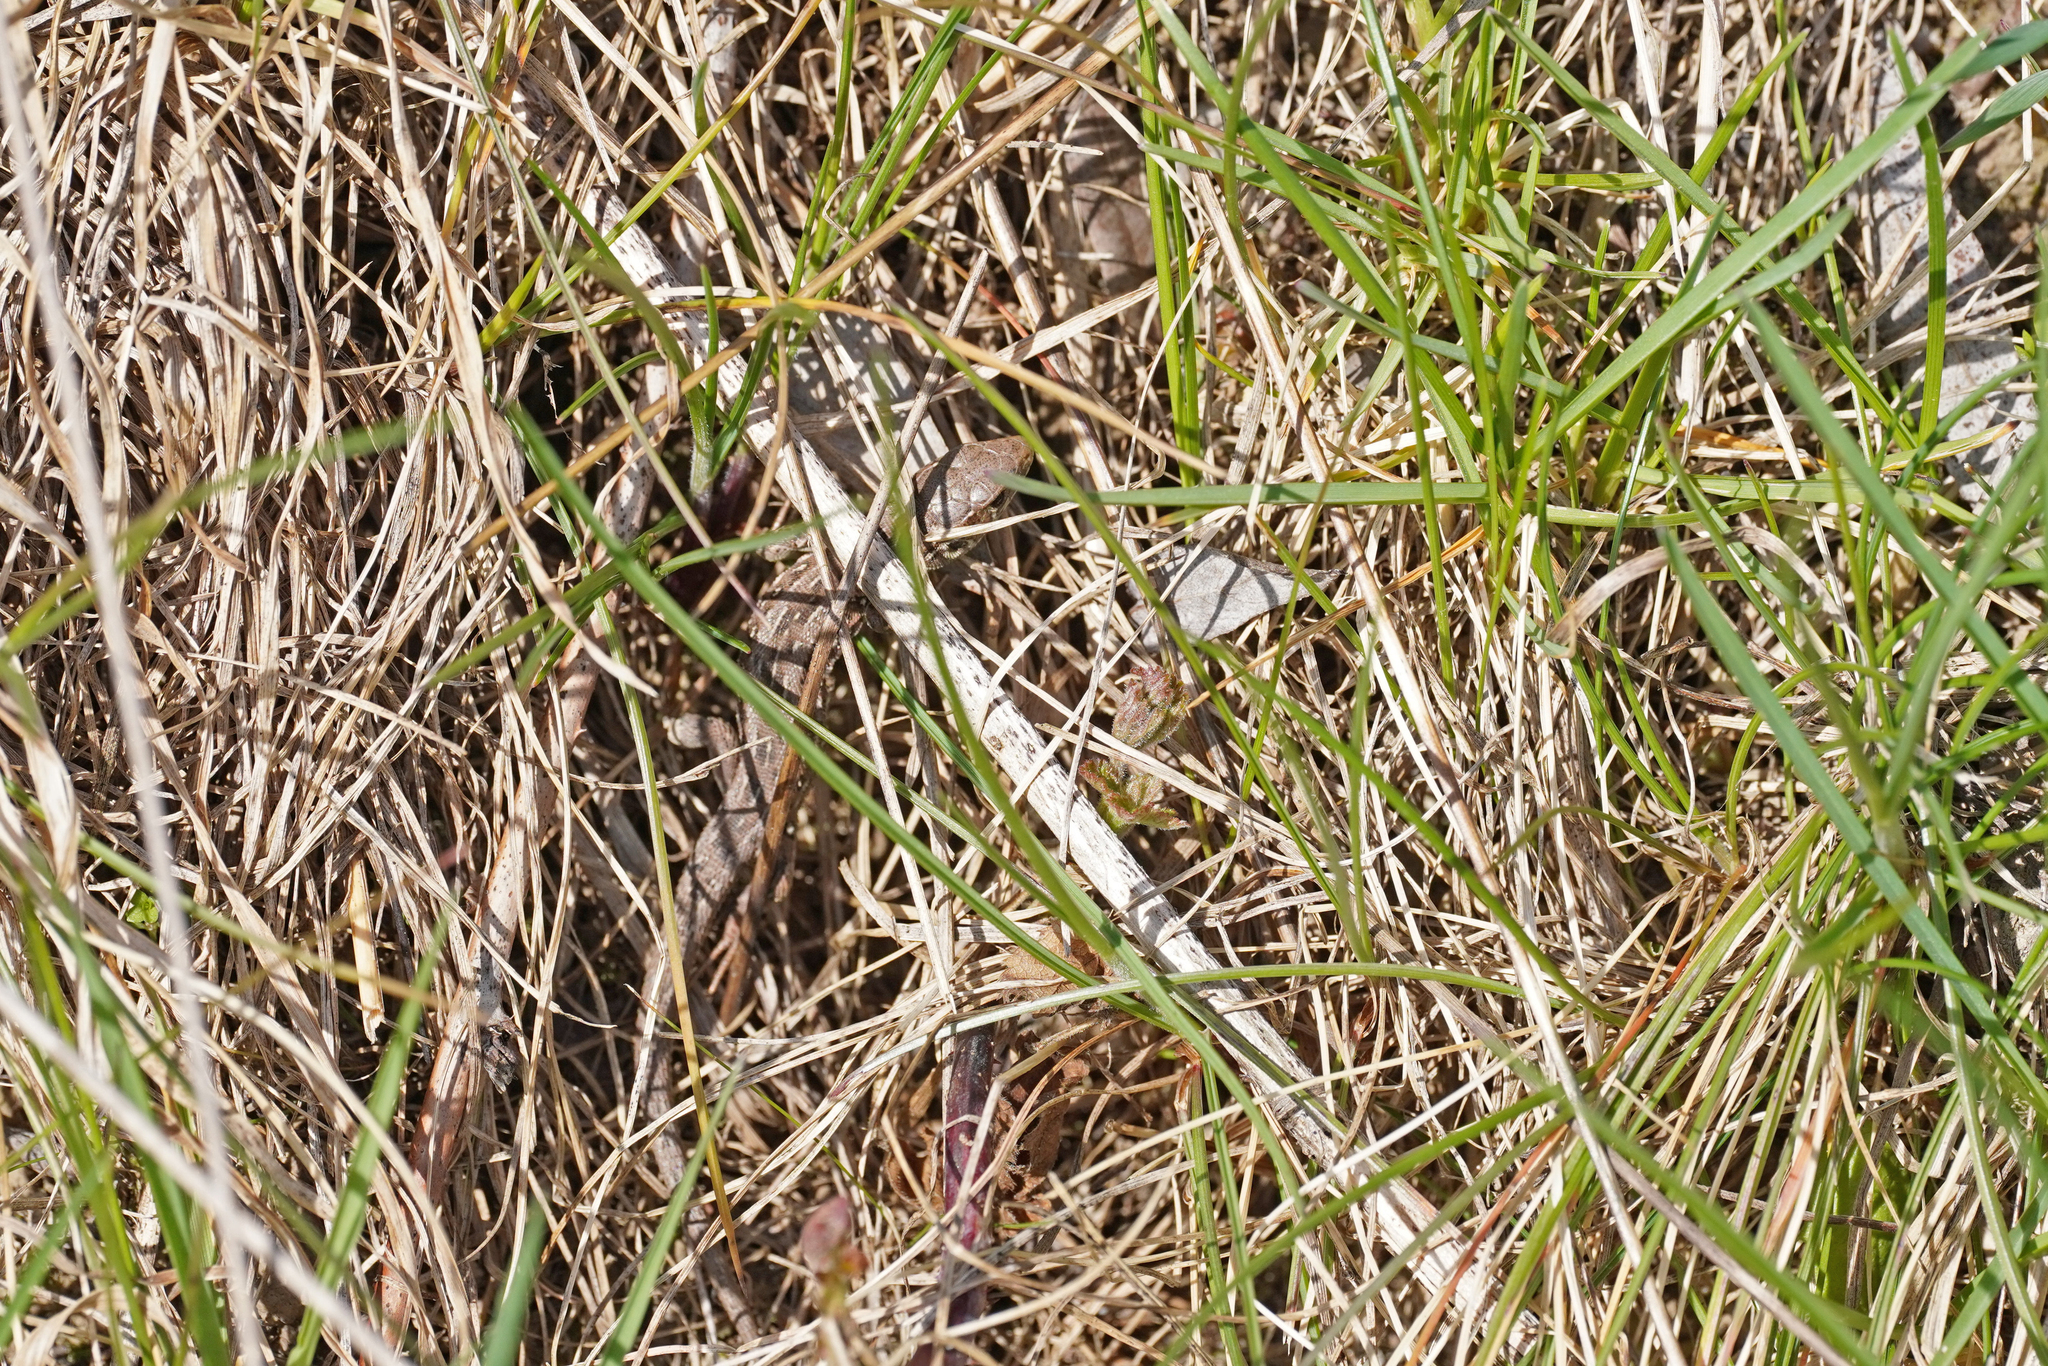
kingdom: Animalia
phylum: Chordata
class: Squamata
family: Lacertidae
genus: Lacerta
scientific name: Lacerta agilis
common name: Sand lizard
